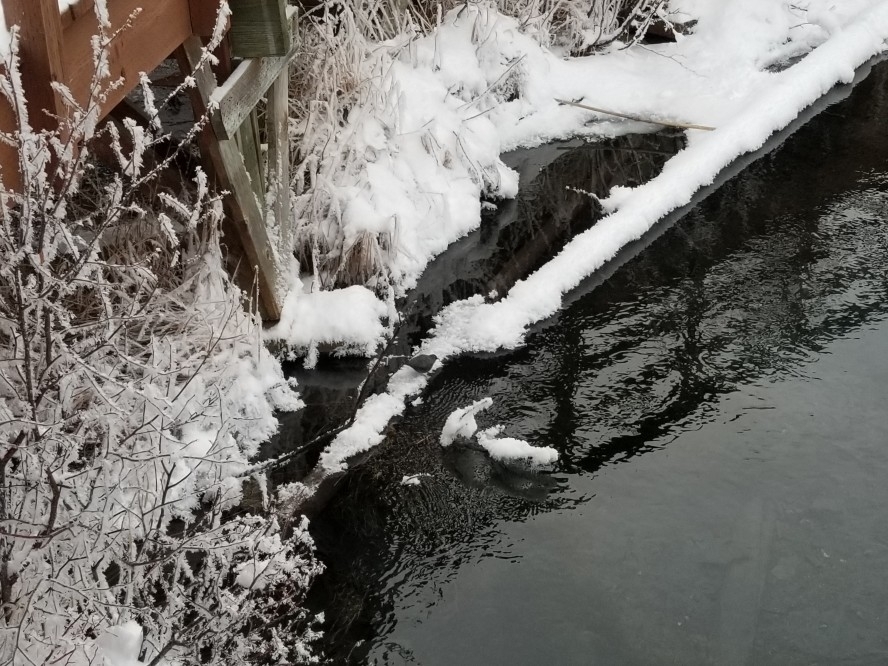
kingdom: Animalia
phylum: Chordata
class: Aves
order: Passeriformes
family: Cinclidae
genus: Cinclus
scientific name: Cinclus mexicanus
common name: American dipper
